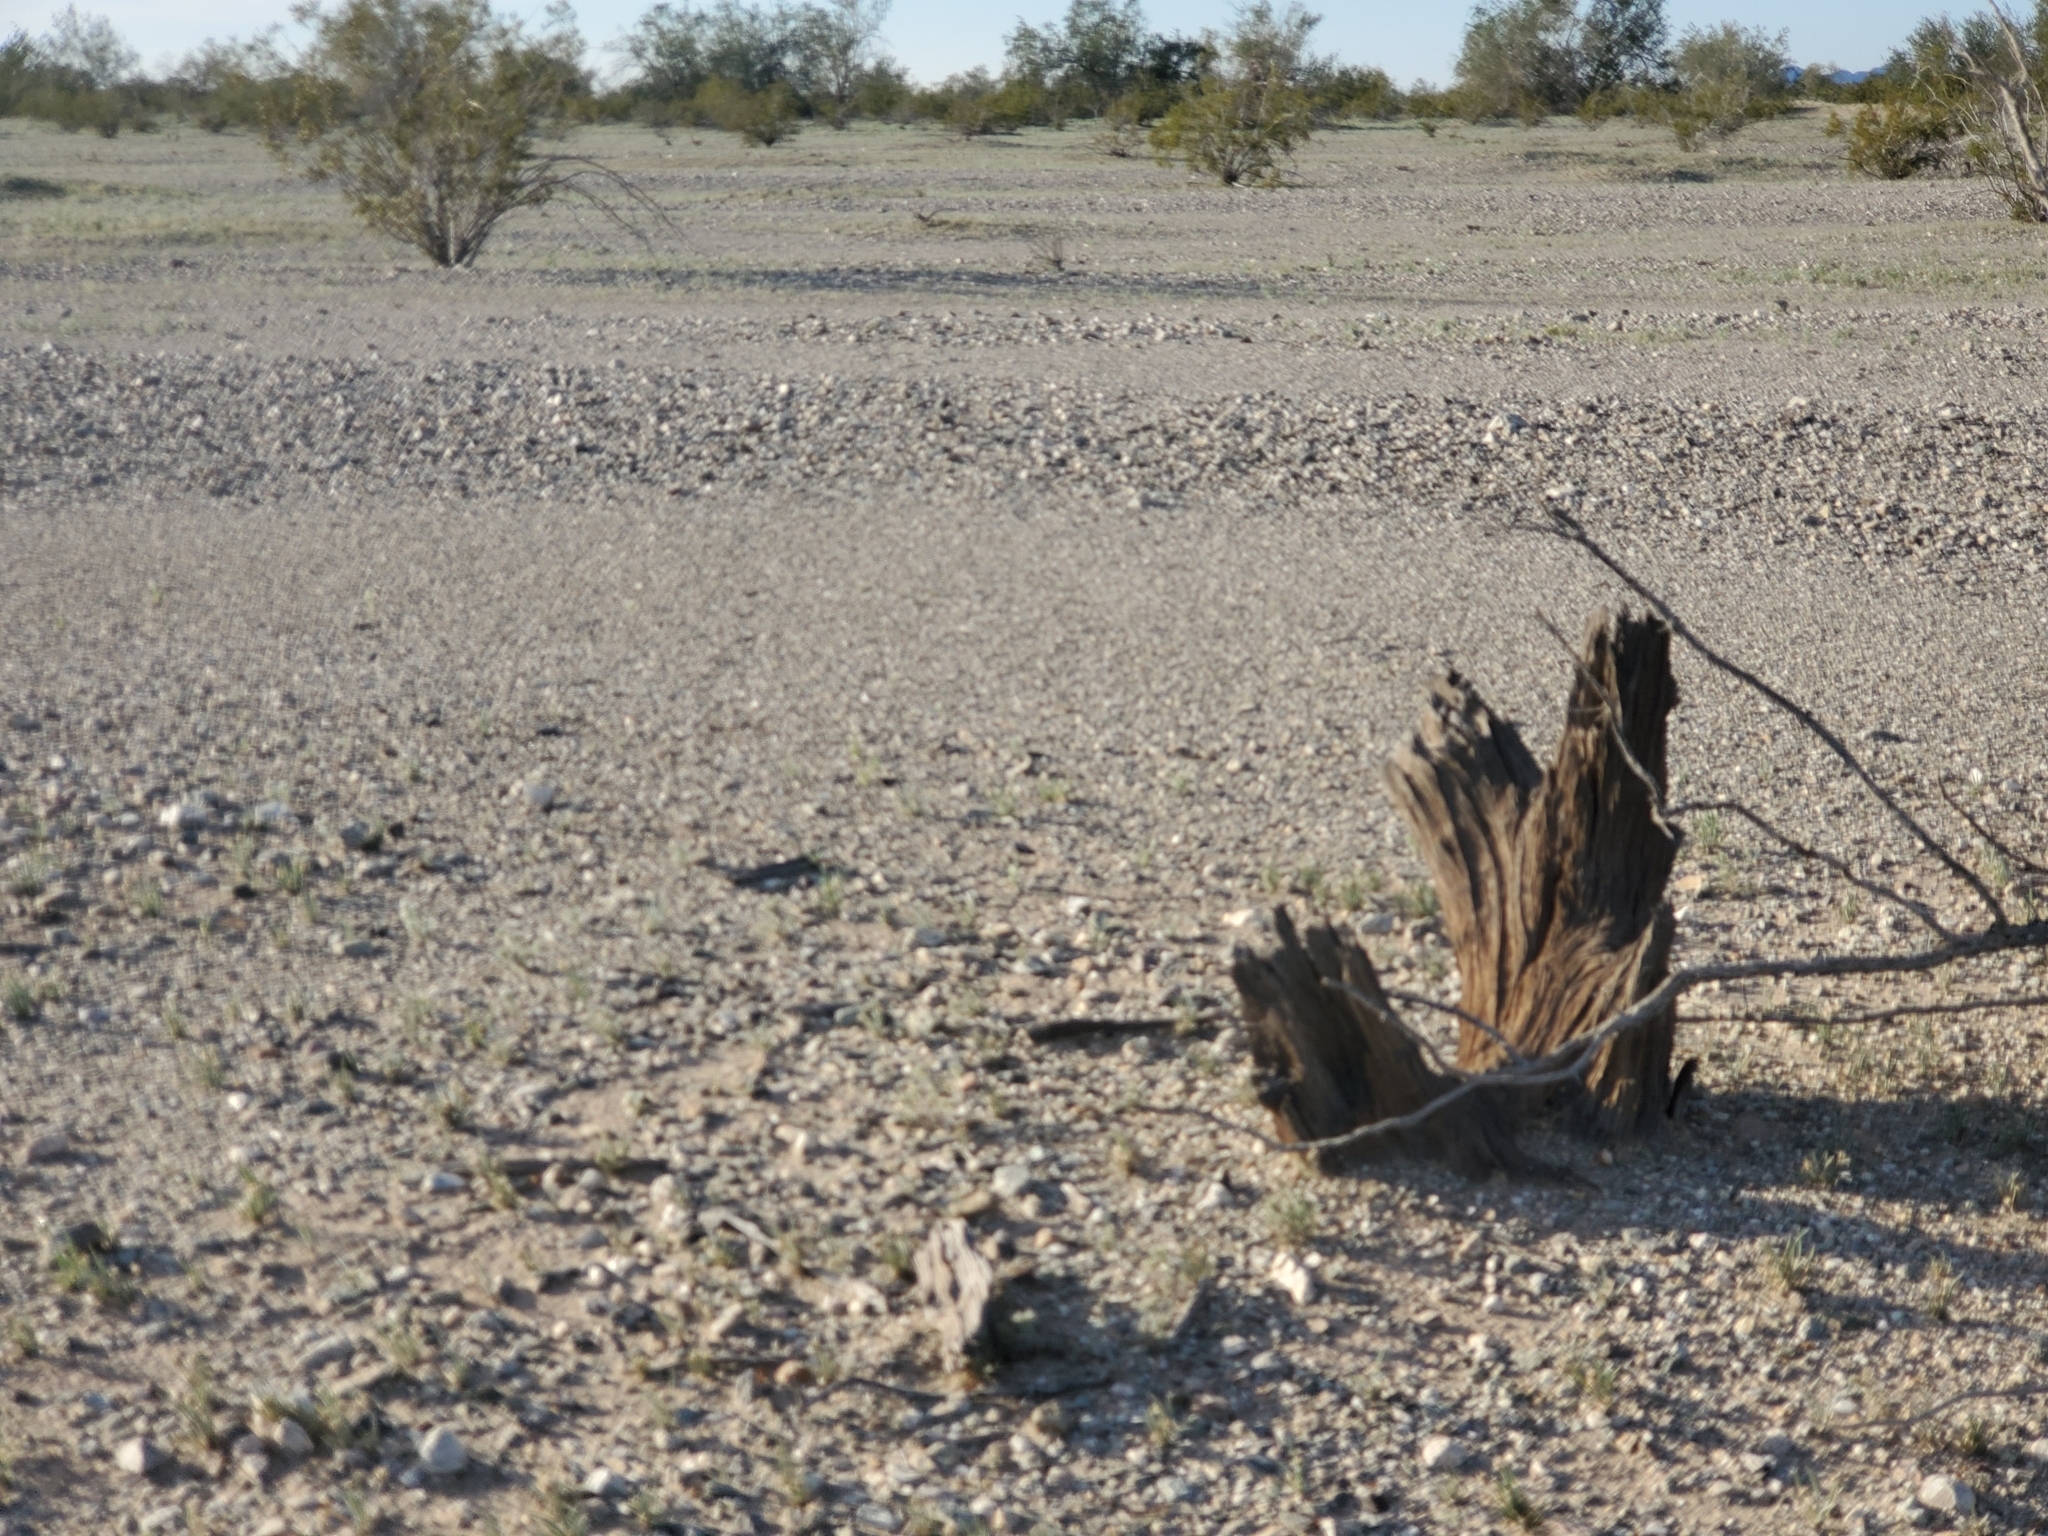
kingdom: Plantae
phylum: Tracheophyta
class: Magnoliopsida
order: Fabales
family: Fabaceae
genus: Olneya
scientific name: Olneya tesota
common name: Desert ironwood
